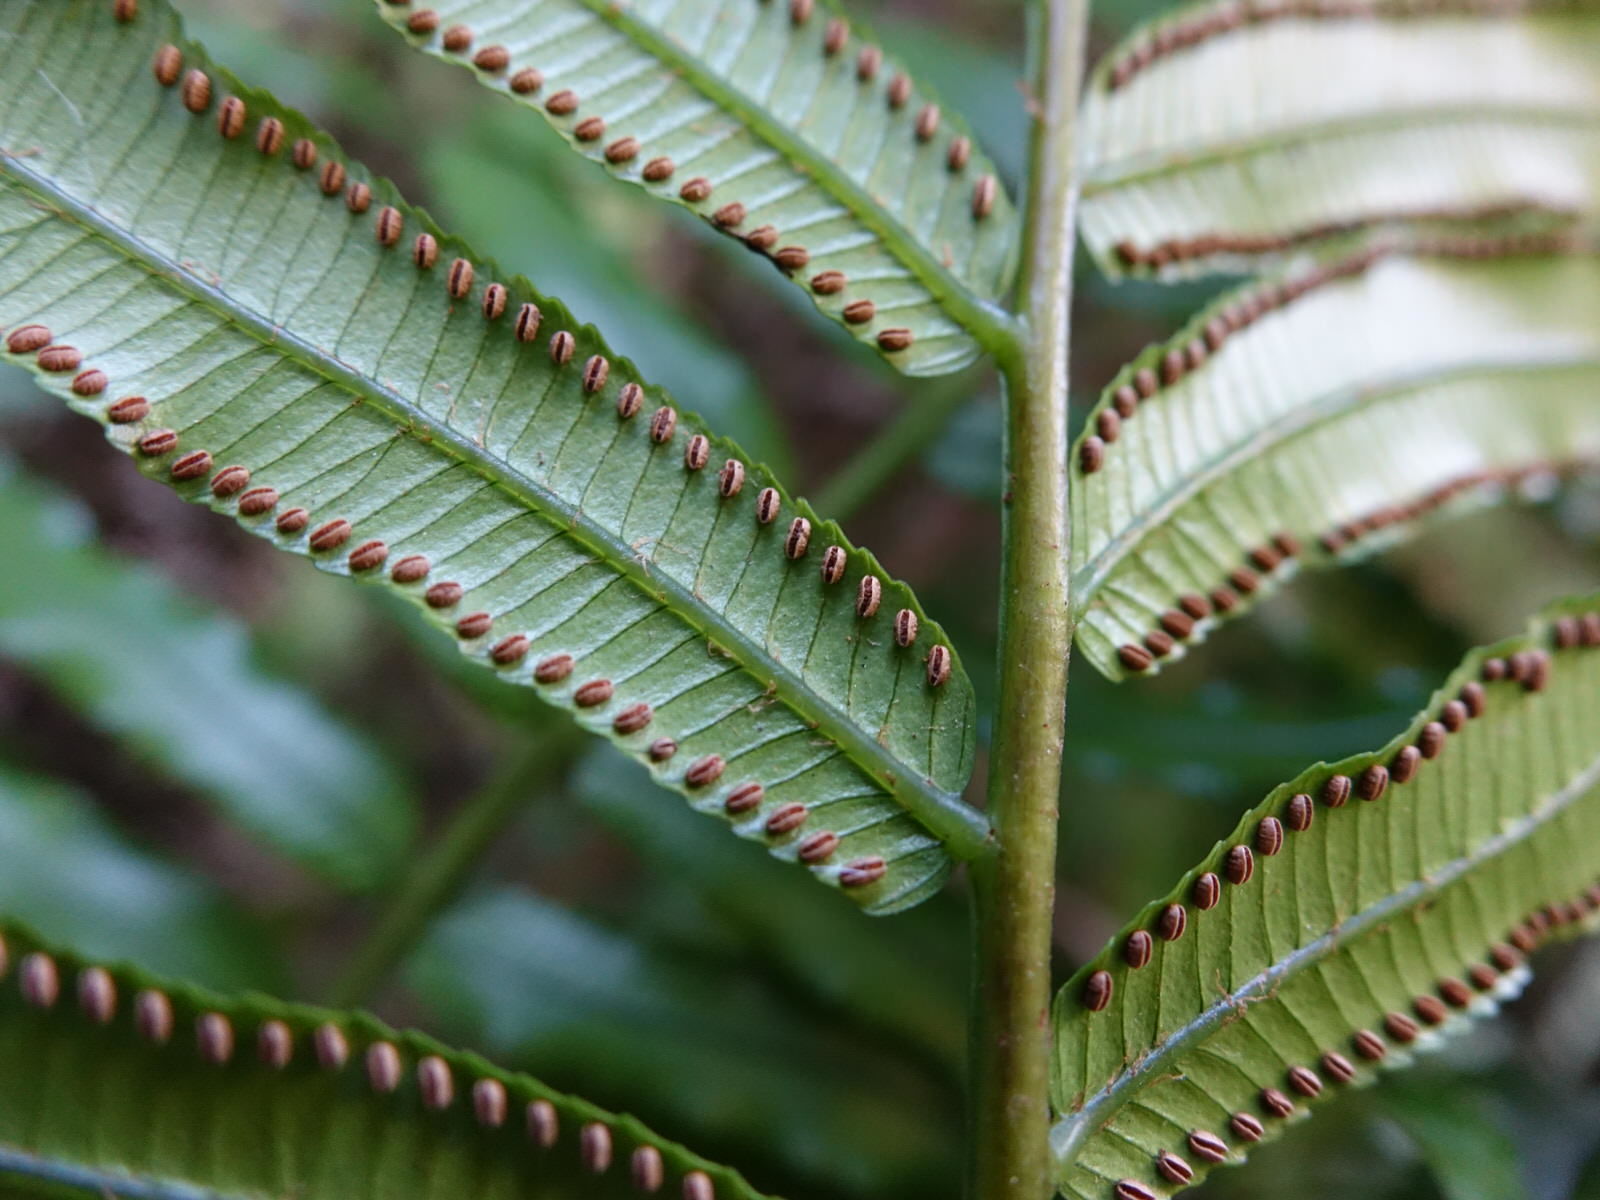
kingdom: Plantae
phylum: Tracheophyta
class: Polypodiopsida
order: Marattiales
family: Marattiaceae
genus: Ptisana
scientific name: Ptisana salicina
